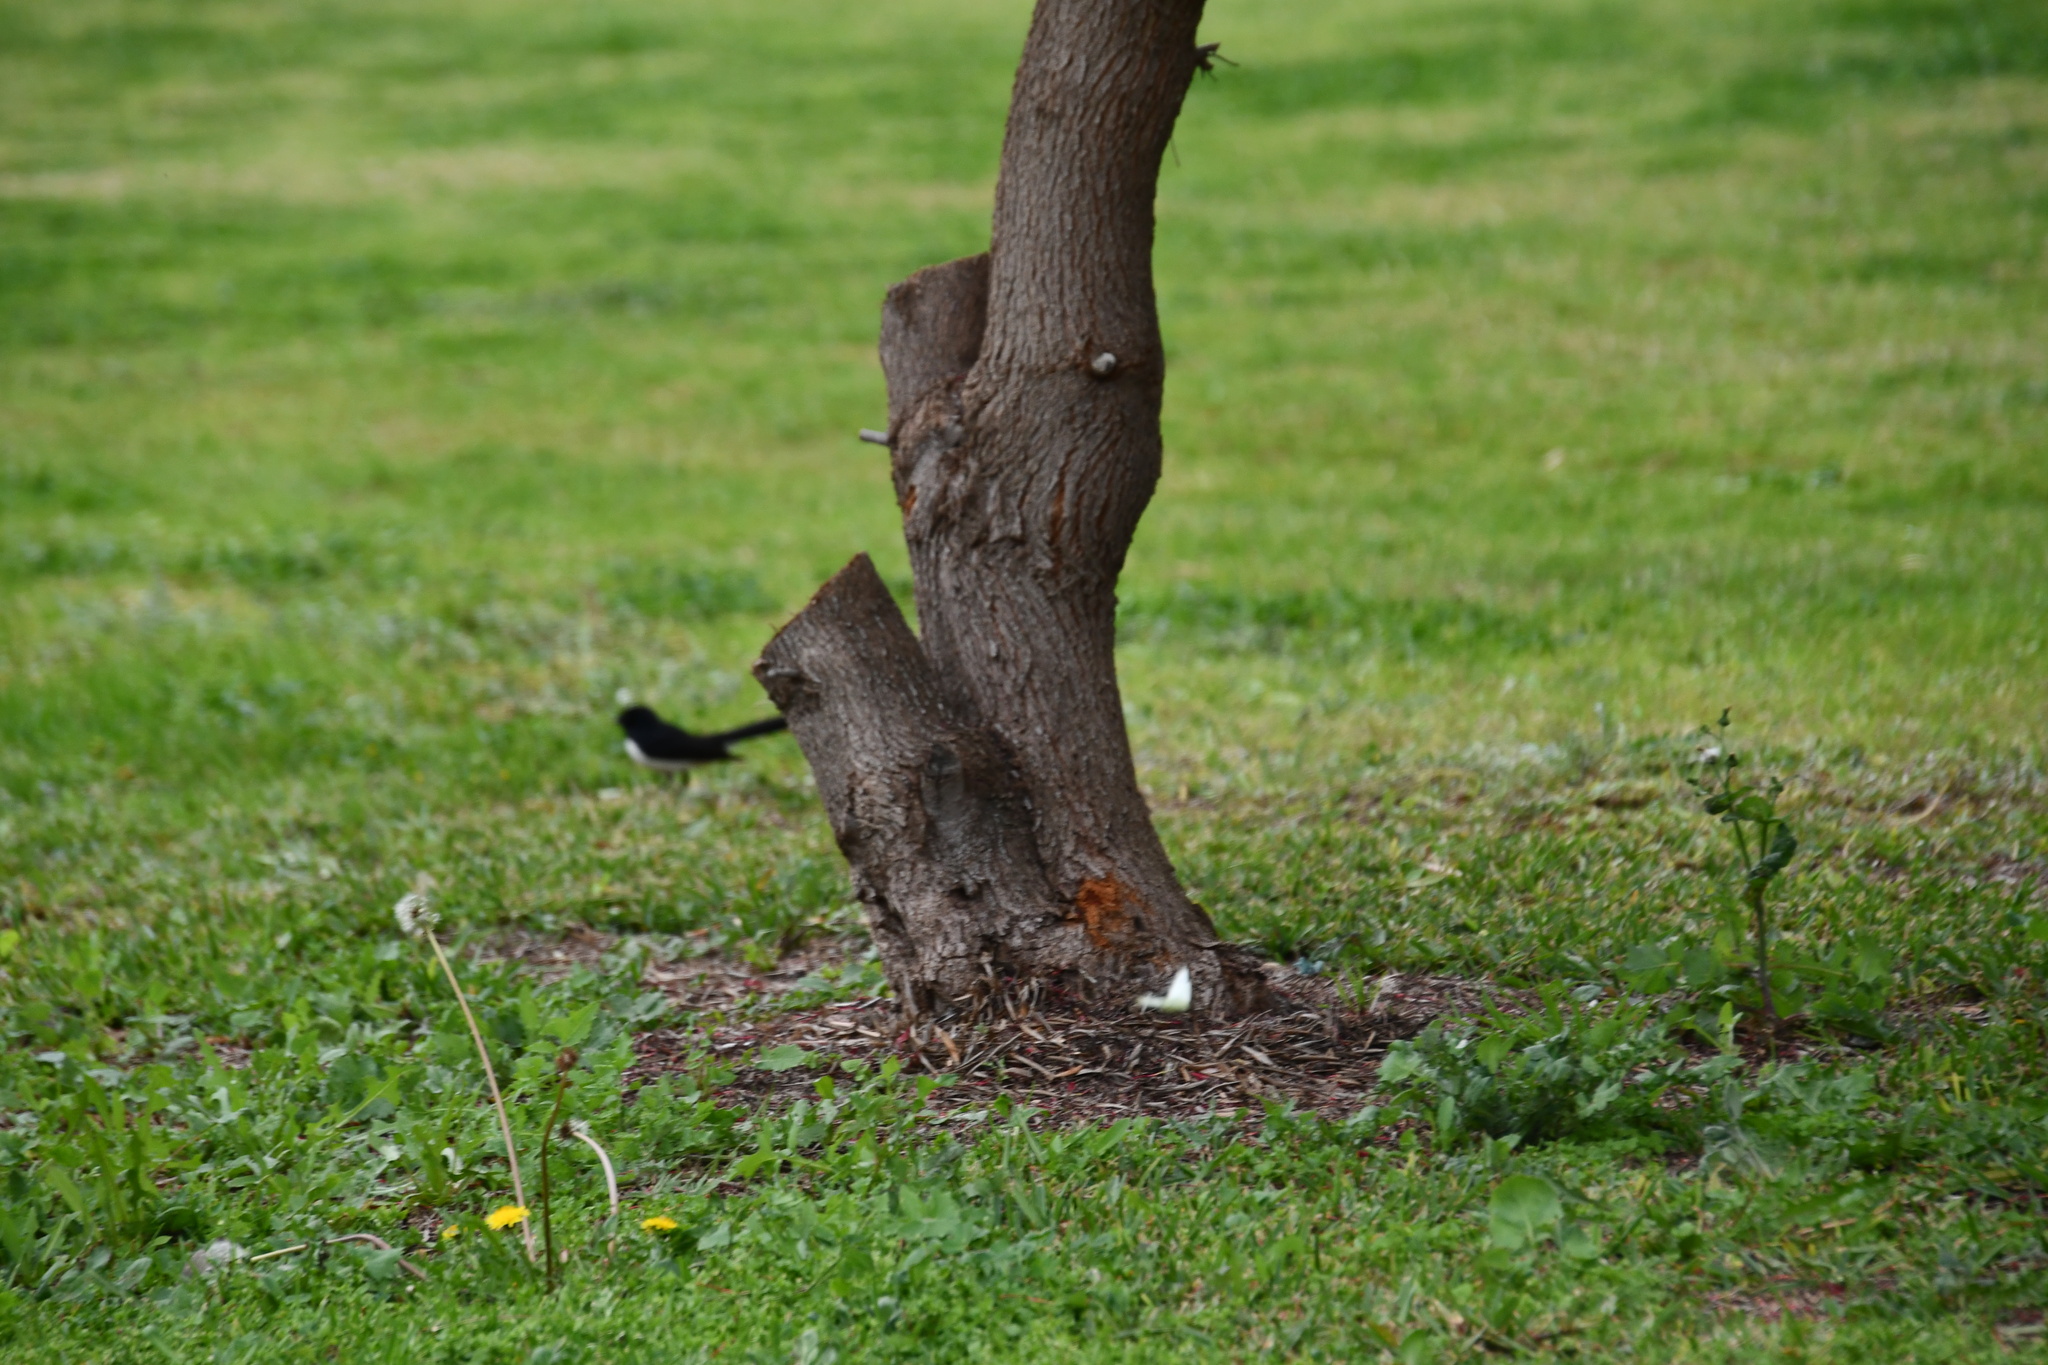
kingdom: Animalia
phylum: Chordata
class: Aves
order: Passeriformes
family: Rhipiduridae
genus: Rhipidura
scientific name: Rhipidura leucophrys
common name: Willie wagtail
